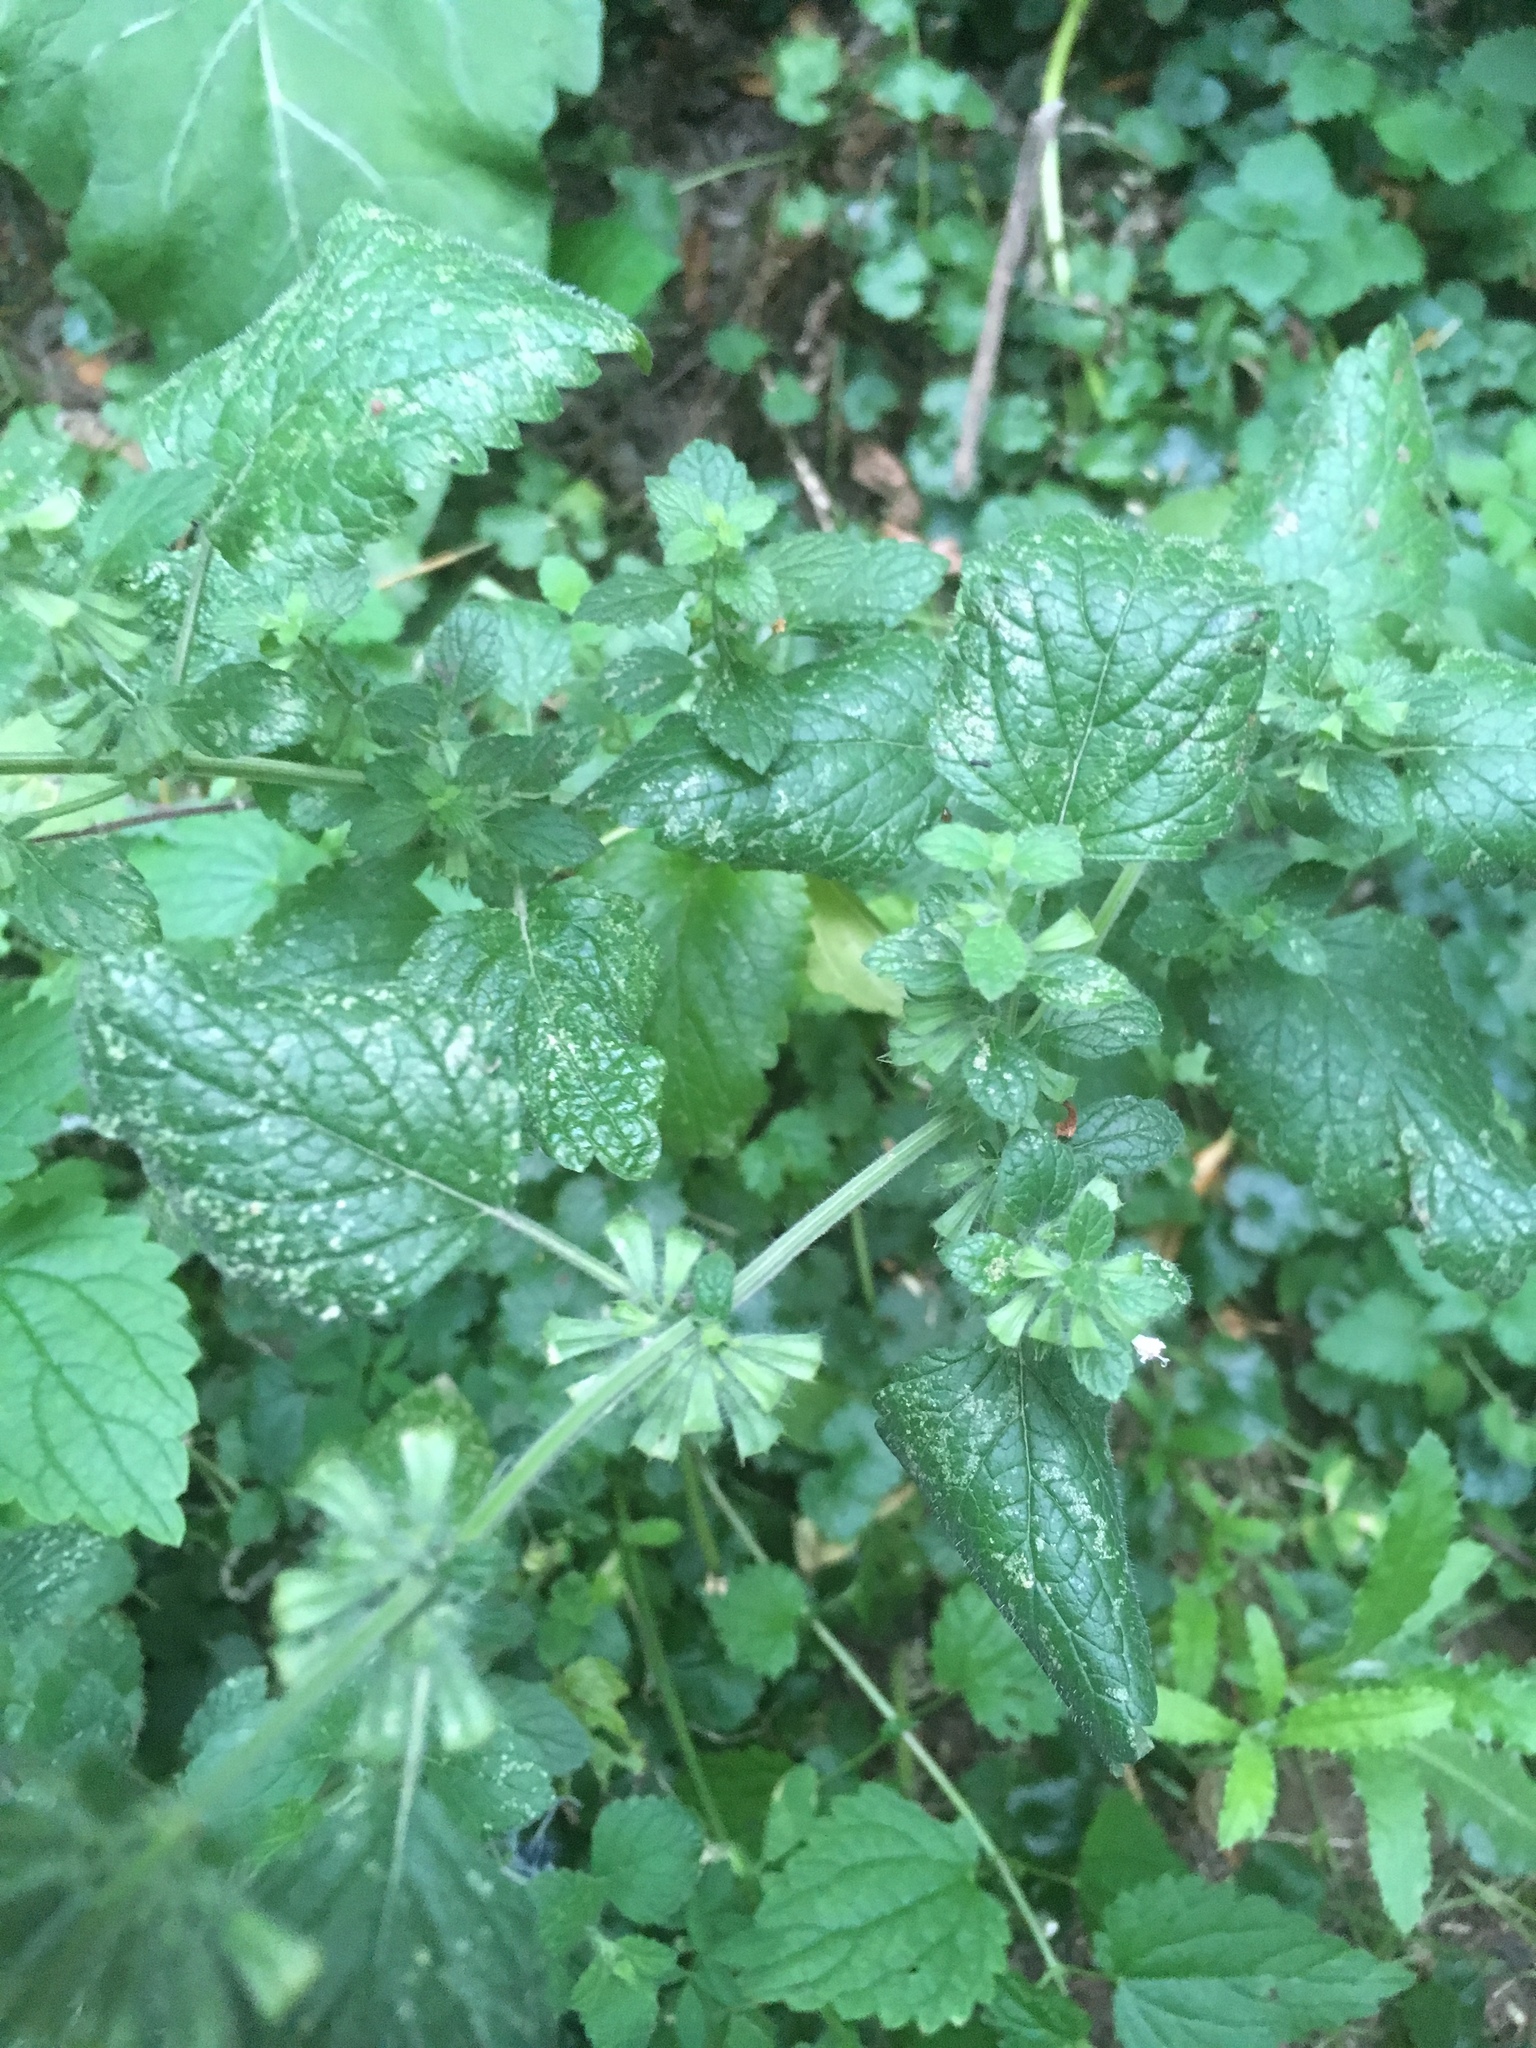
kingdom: Plantae
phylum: Tracheophyta
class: Magnoliopsida
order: Lamiales
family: Lamiaceae
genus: Melissa
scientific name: Melissa officinalis
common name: Balm
